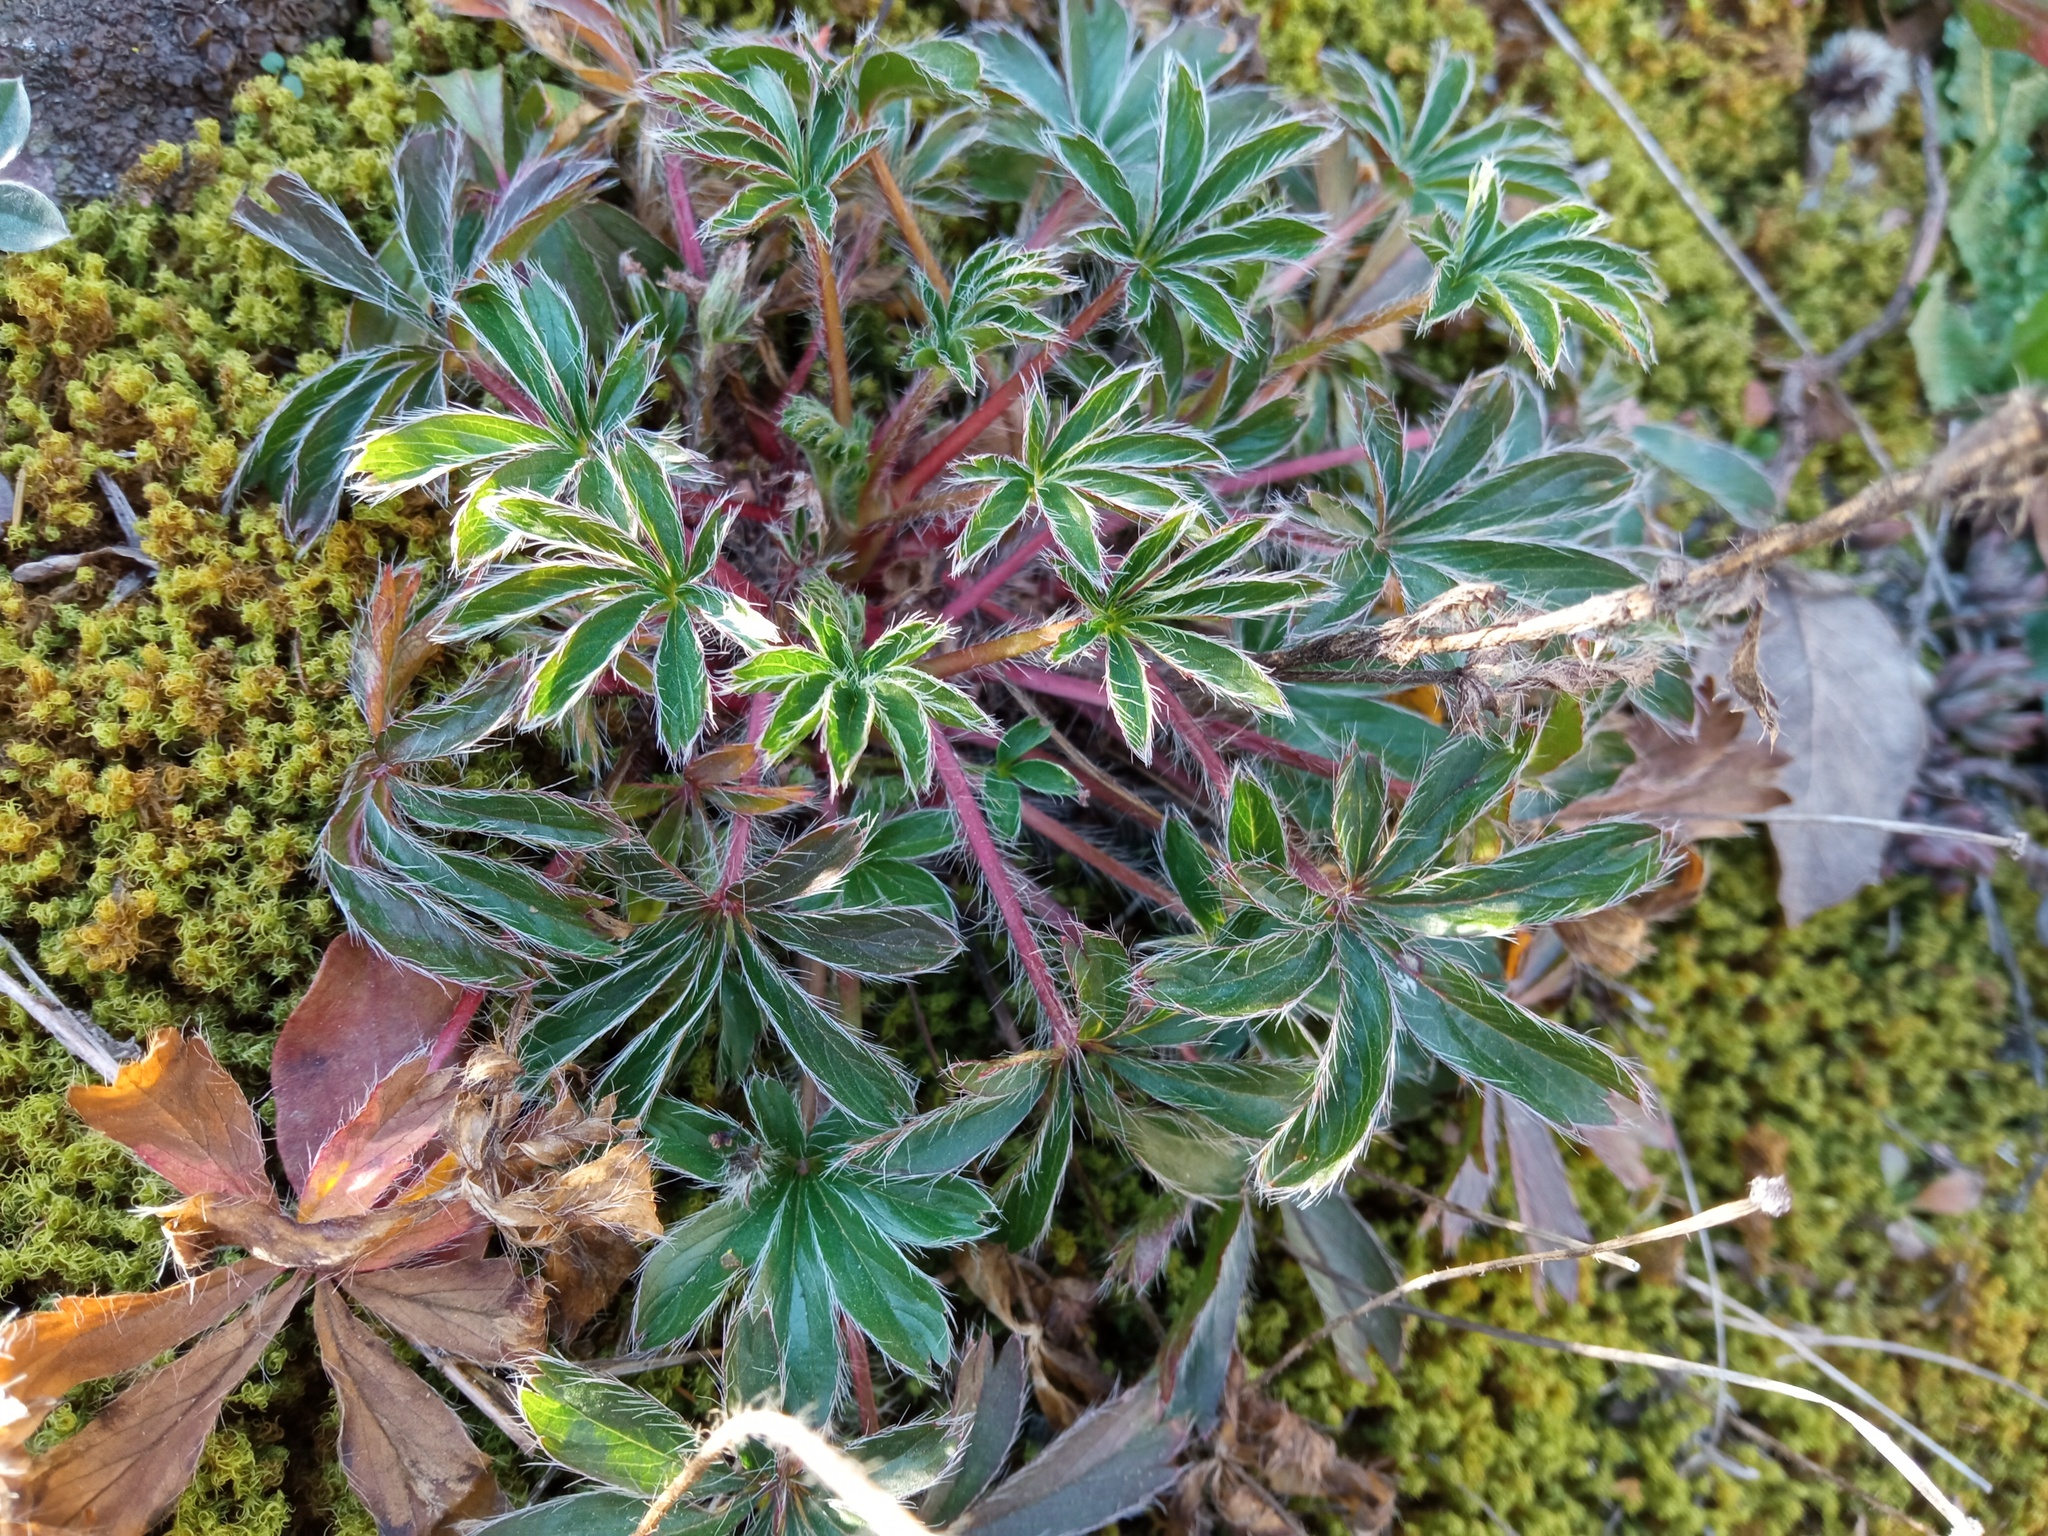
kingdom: Plantae
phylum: Tracheophyta
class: Magnoliopsida
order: Rosales
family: Rosaceae
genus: Potentilla
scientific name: Potentilla hirta
